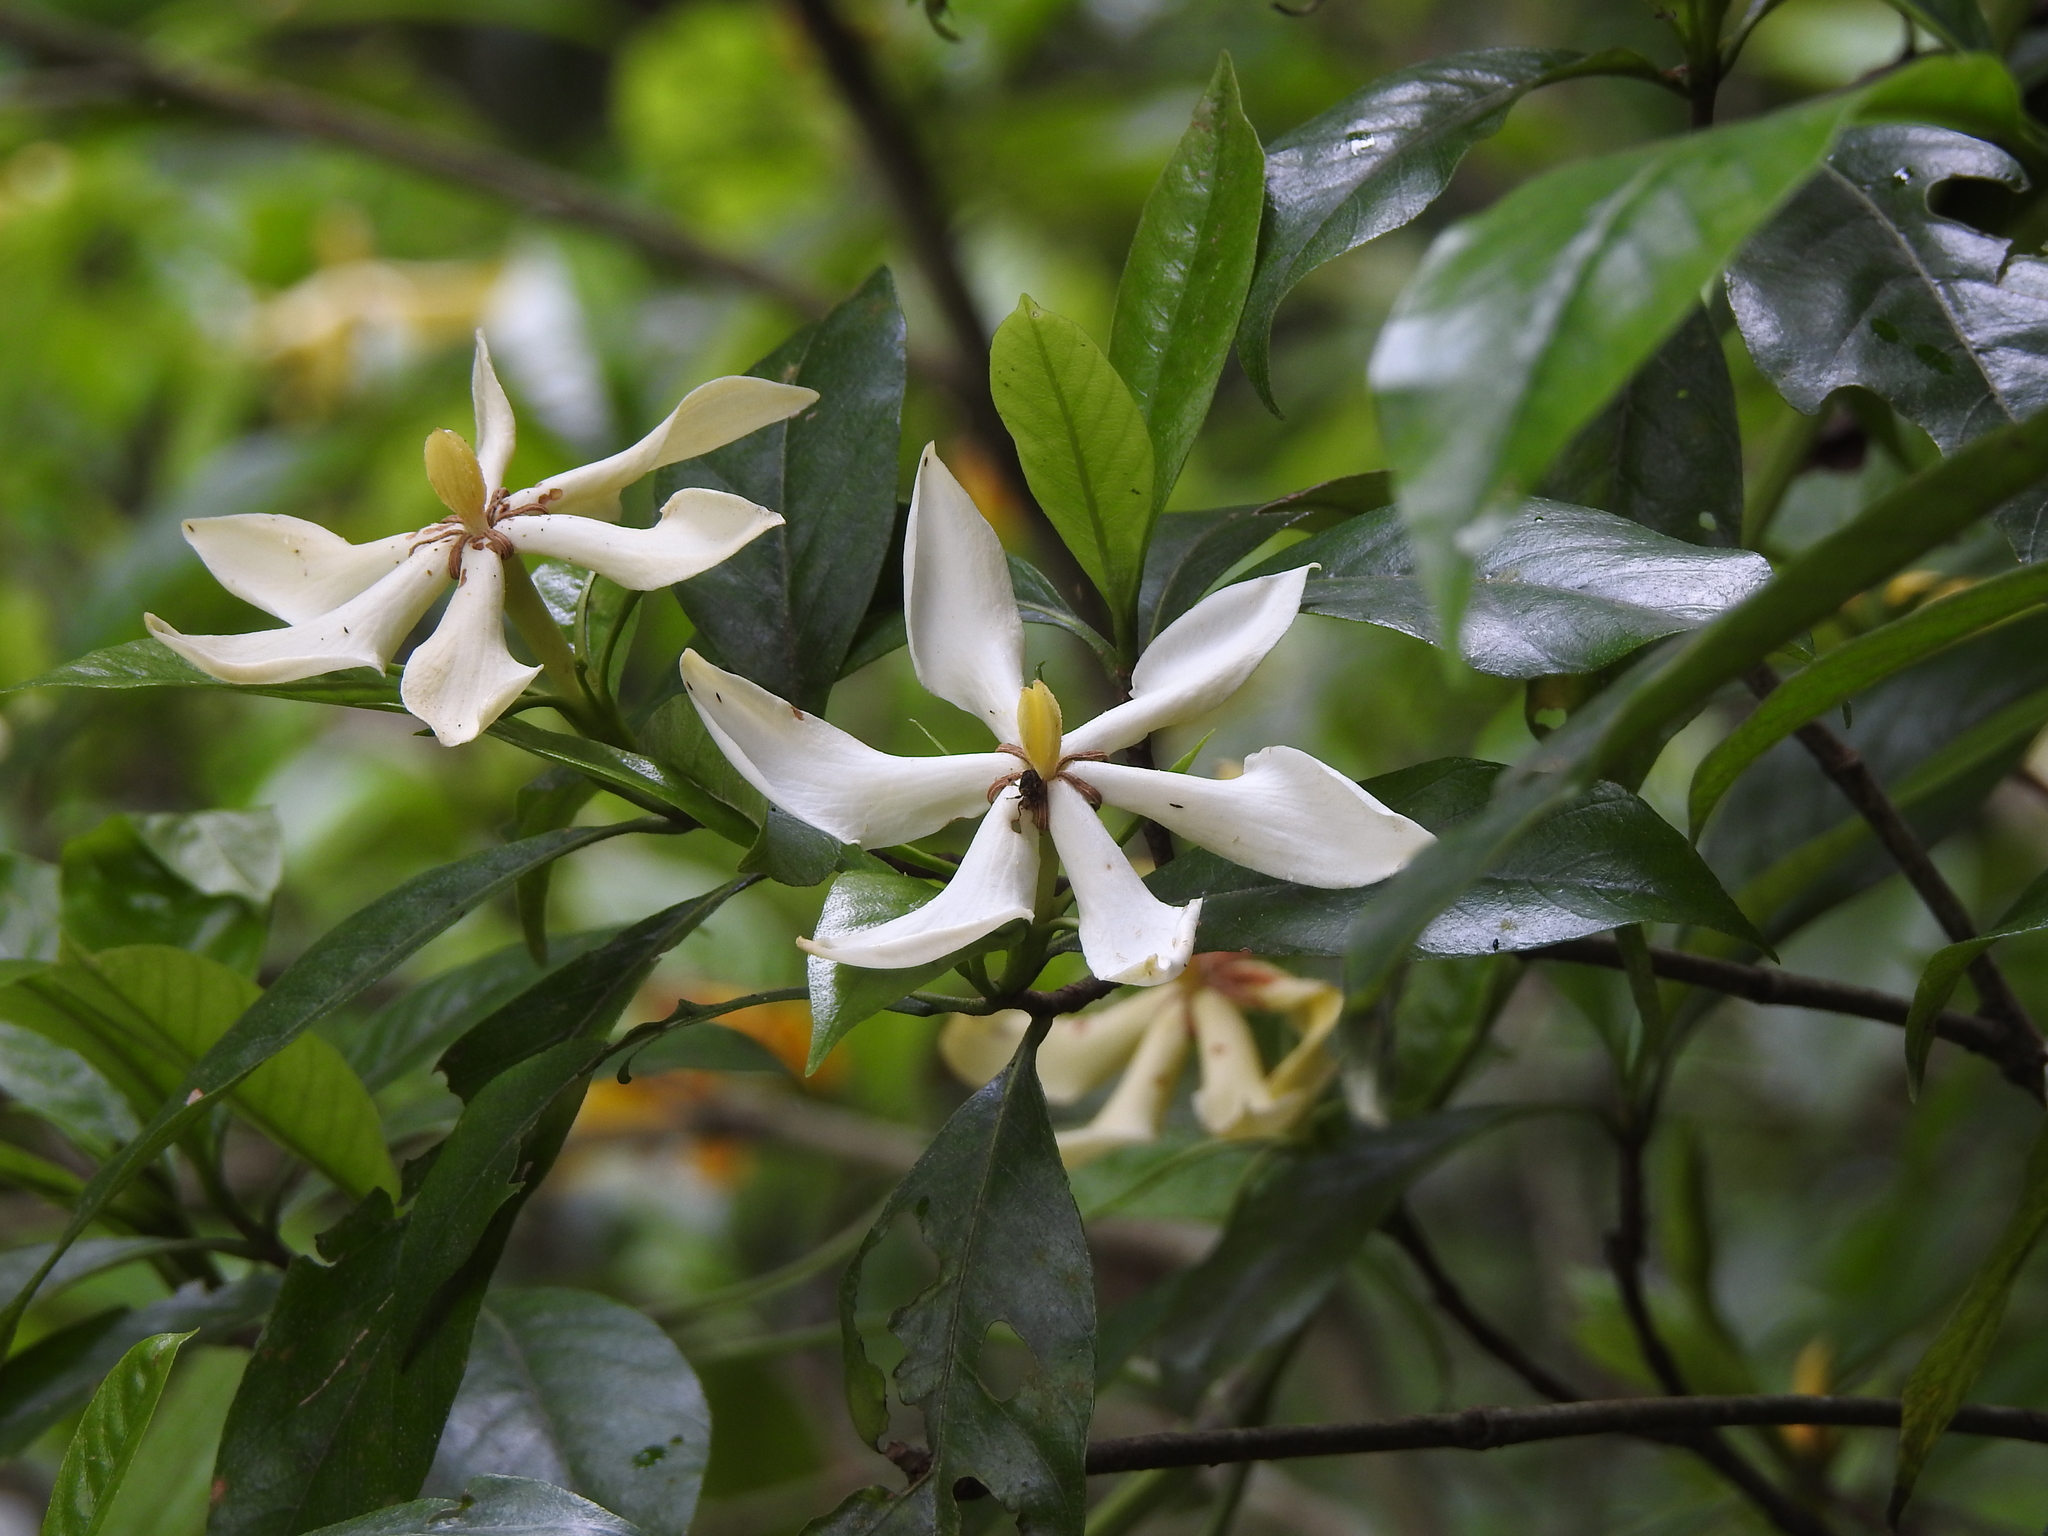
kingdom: Plantae
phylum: Tracheophyta
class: Magnoliopsida
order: Gentianales
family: Rubiaceae
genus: Gardenia
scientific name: Gardenia jasminoides
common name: Cape-jasmine
